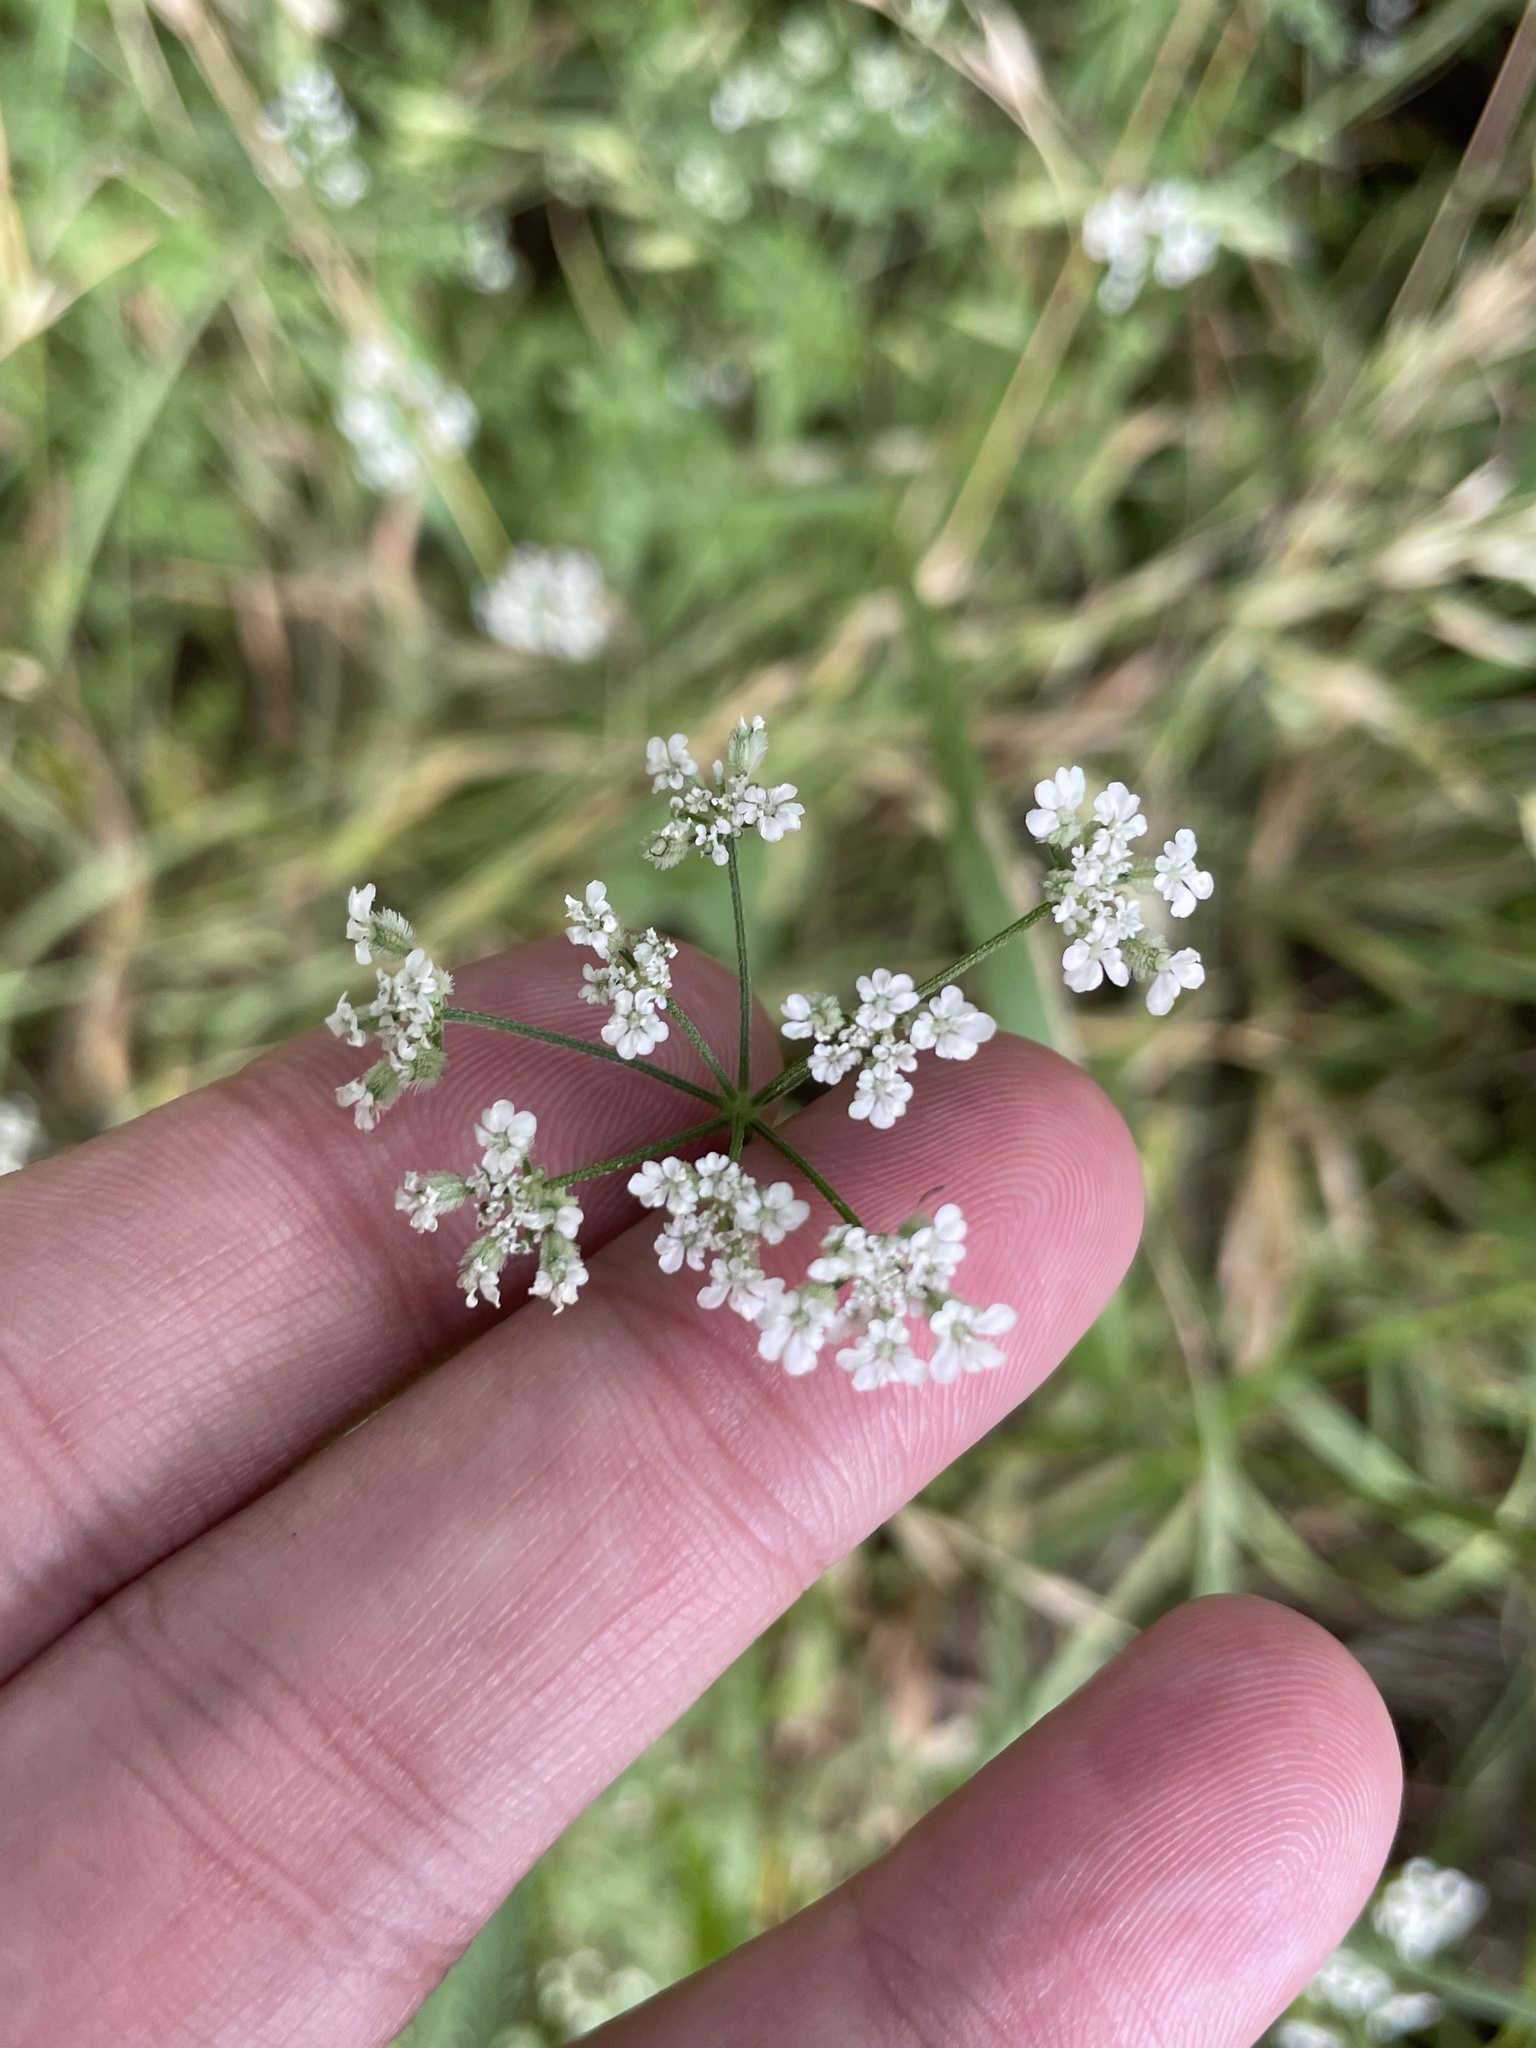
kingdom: Plantae
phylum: Tracheophyta
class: Magnoliopsida
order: Apiales
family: Apiaceae
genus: Torilis
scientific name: Torilis arvensis
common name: Spreading hedge-parsley
